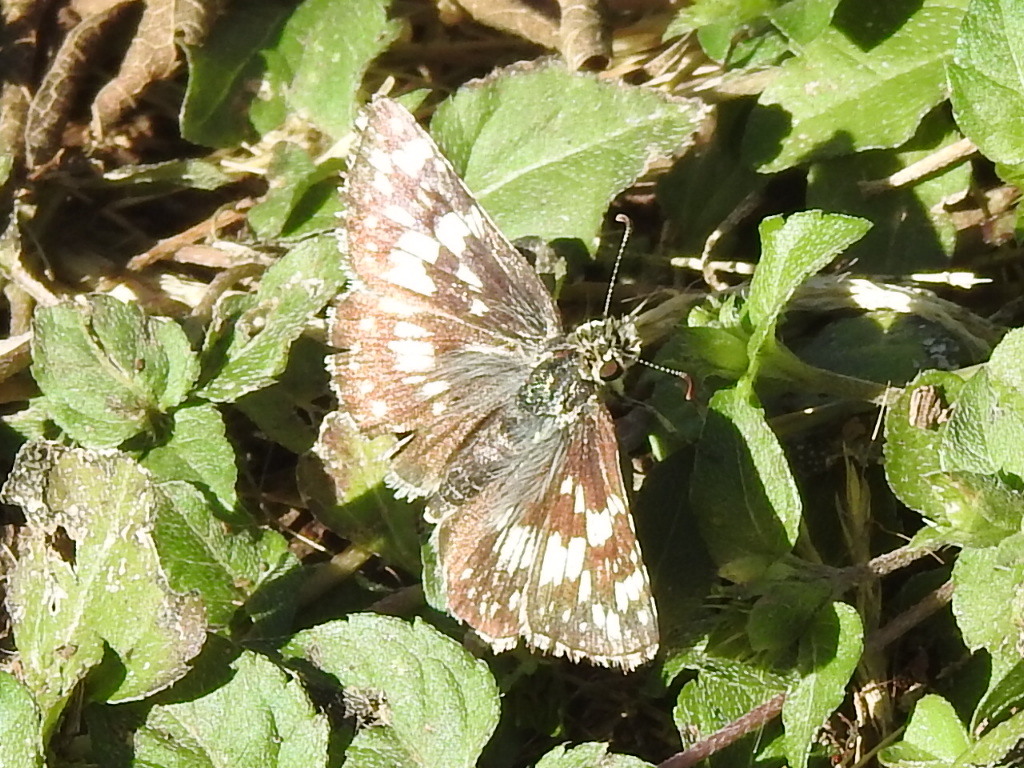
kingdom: Animalia
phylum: Arthropoda
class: Insecta
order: Lepidoptera
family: Hesperiidae
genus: Burnsius
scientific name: Burnsius
